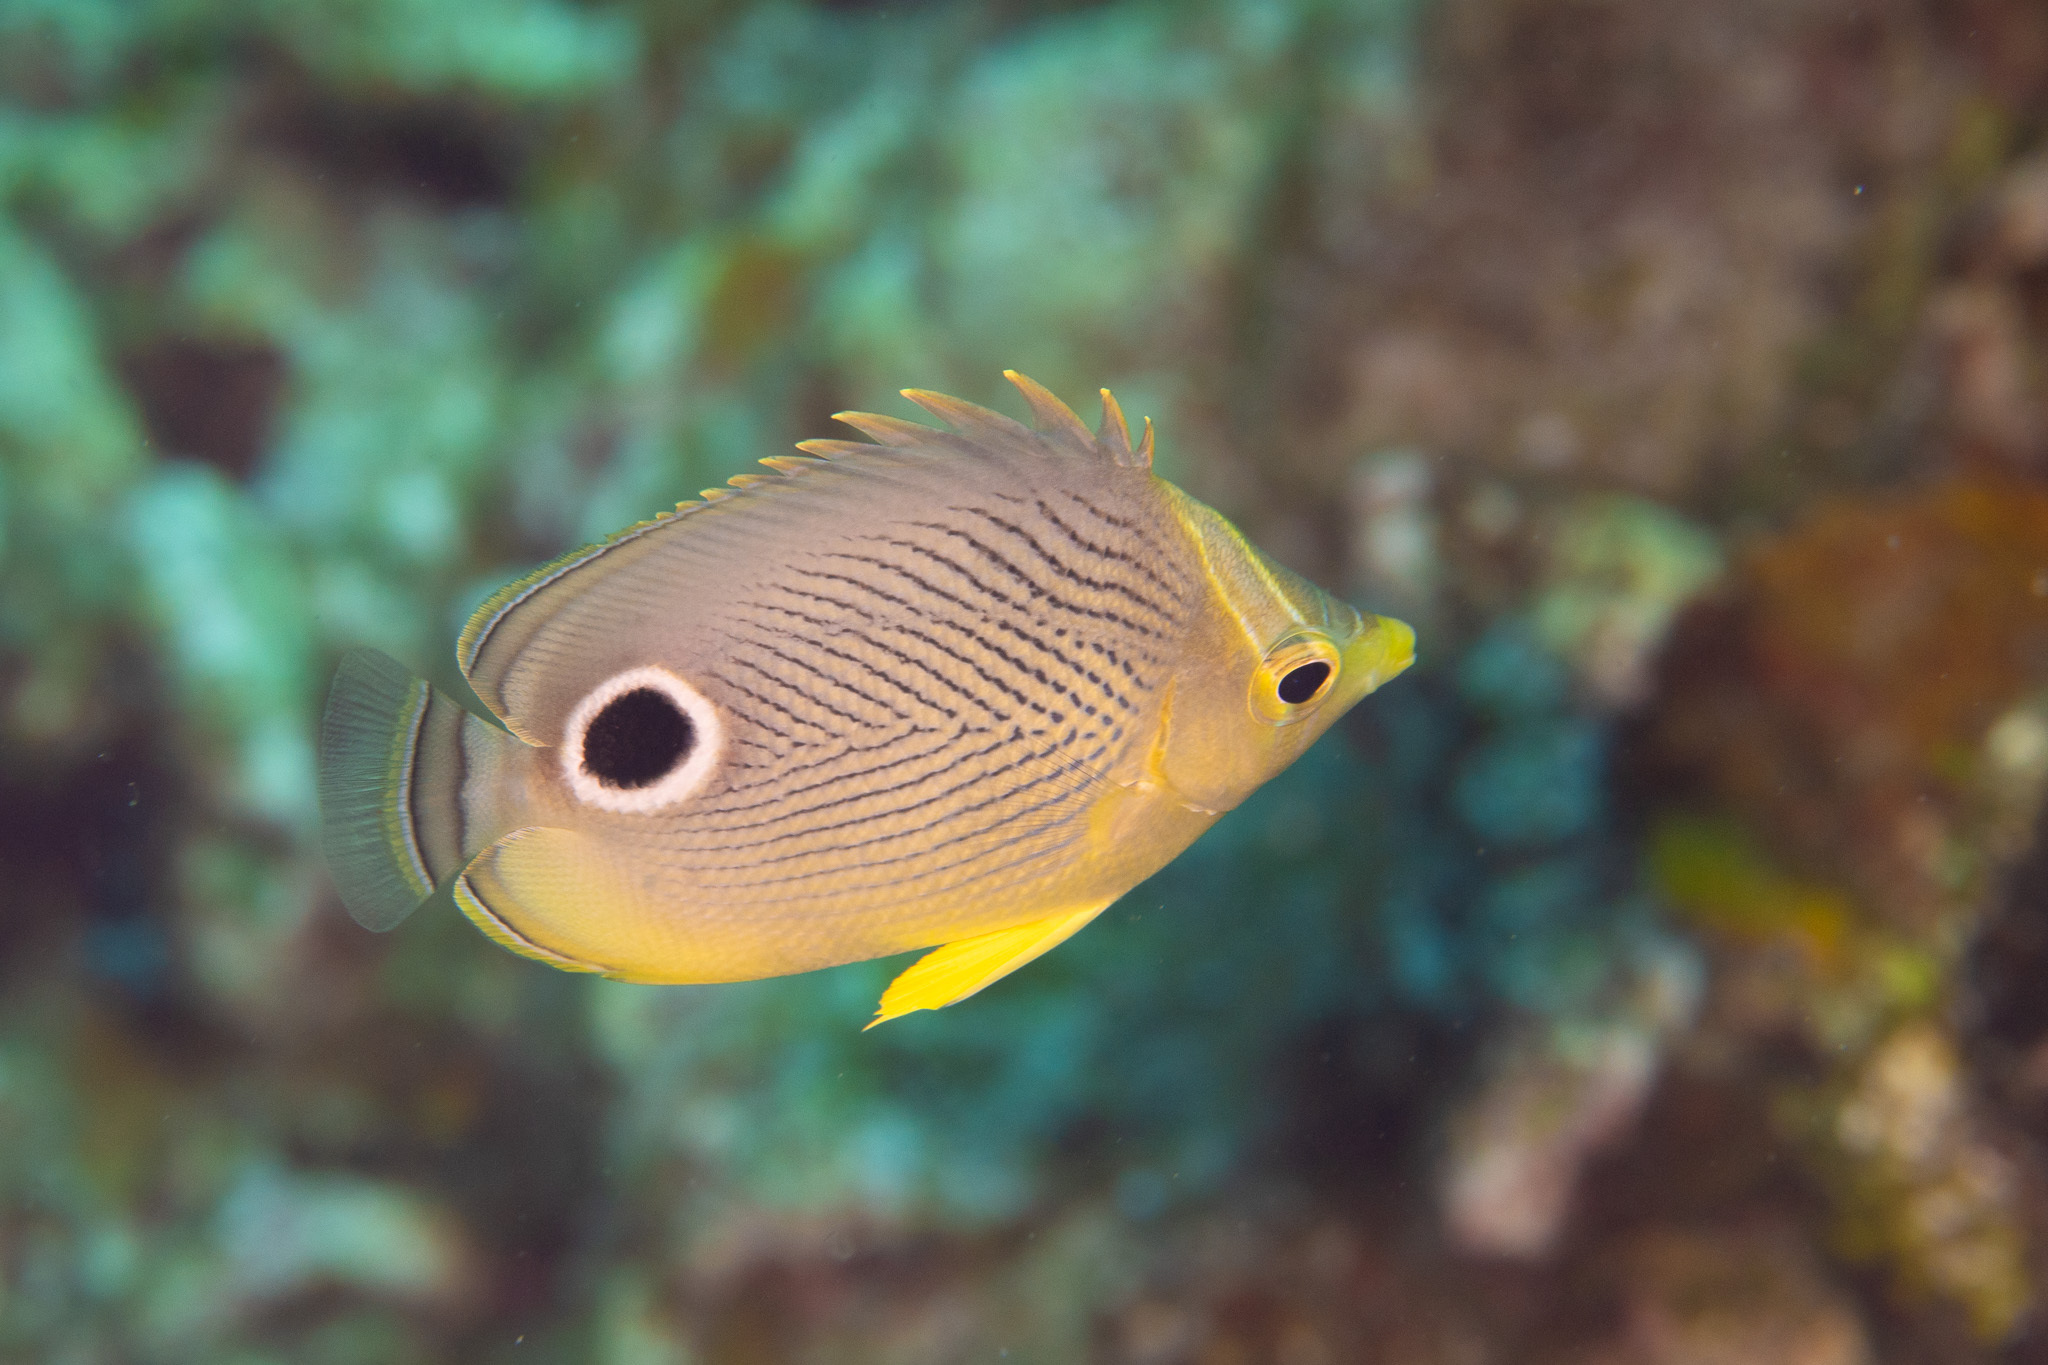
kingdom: Animalia
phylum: Chordata
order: Perciformes
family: Chaetodontidae
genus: Chaetodon
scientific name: Chaetodon capistratus
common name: Kete
